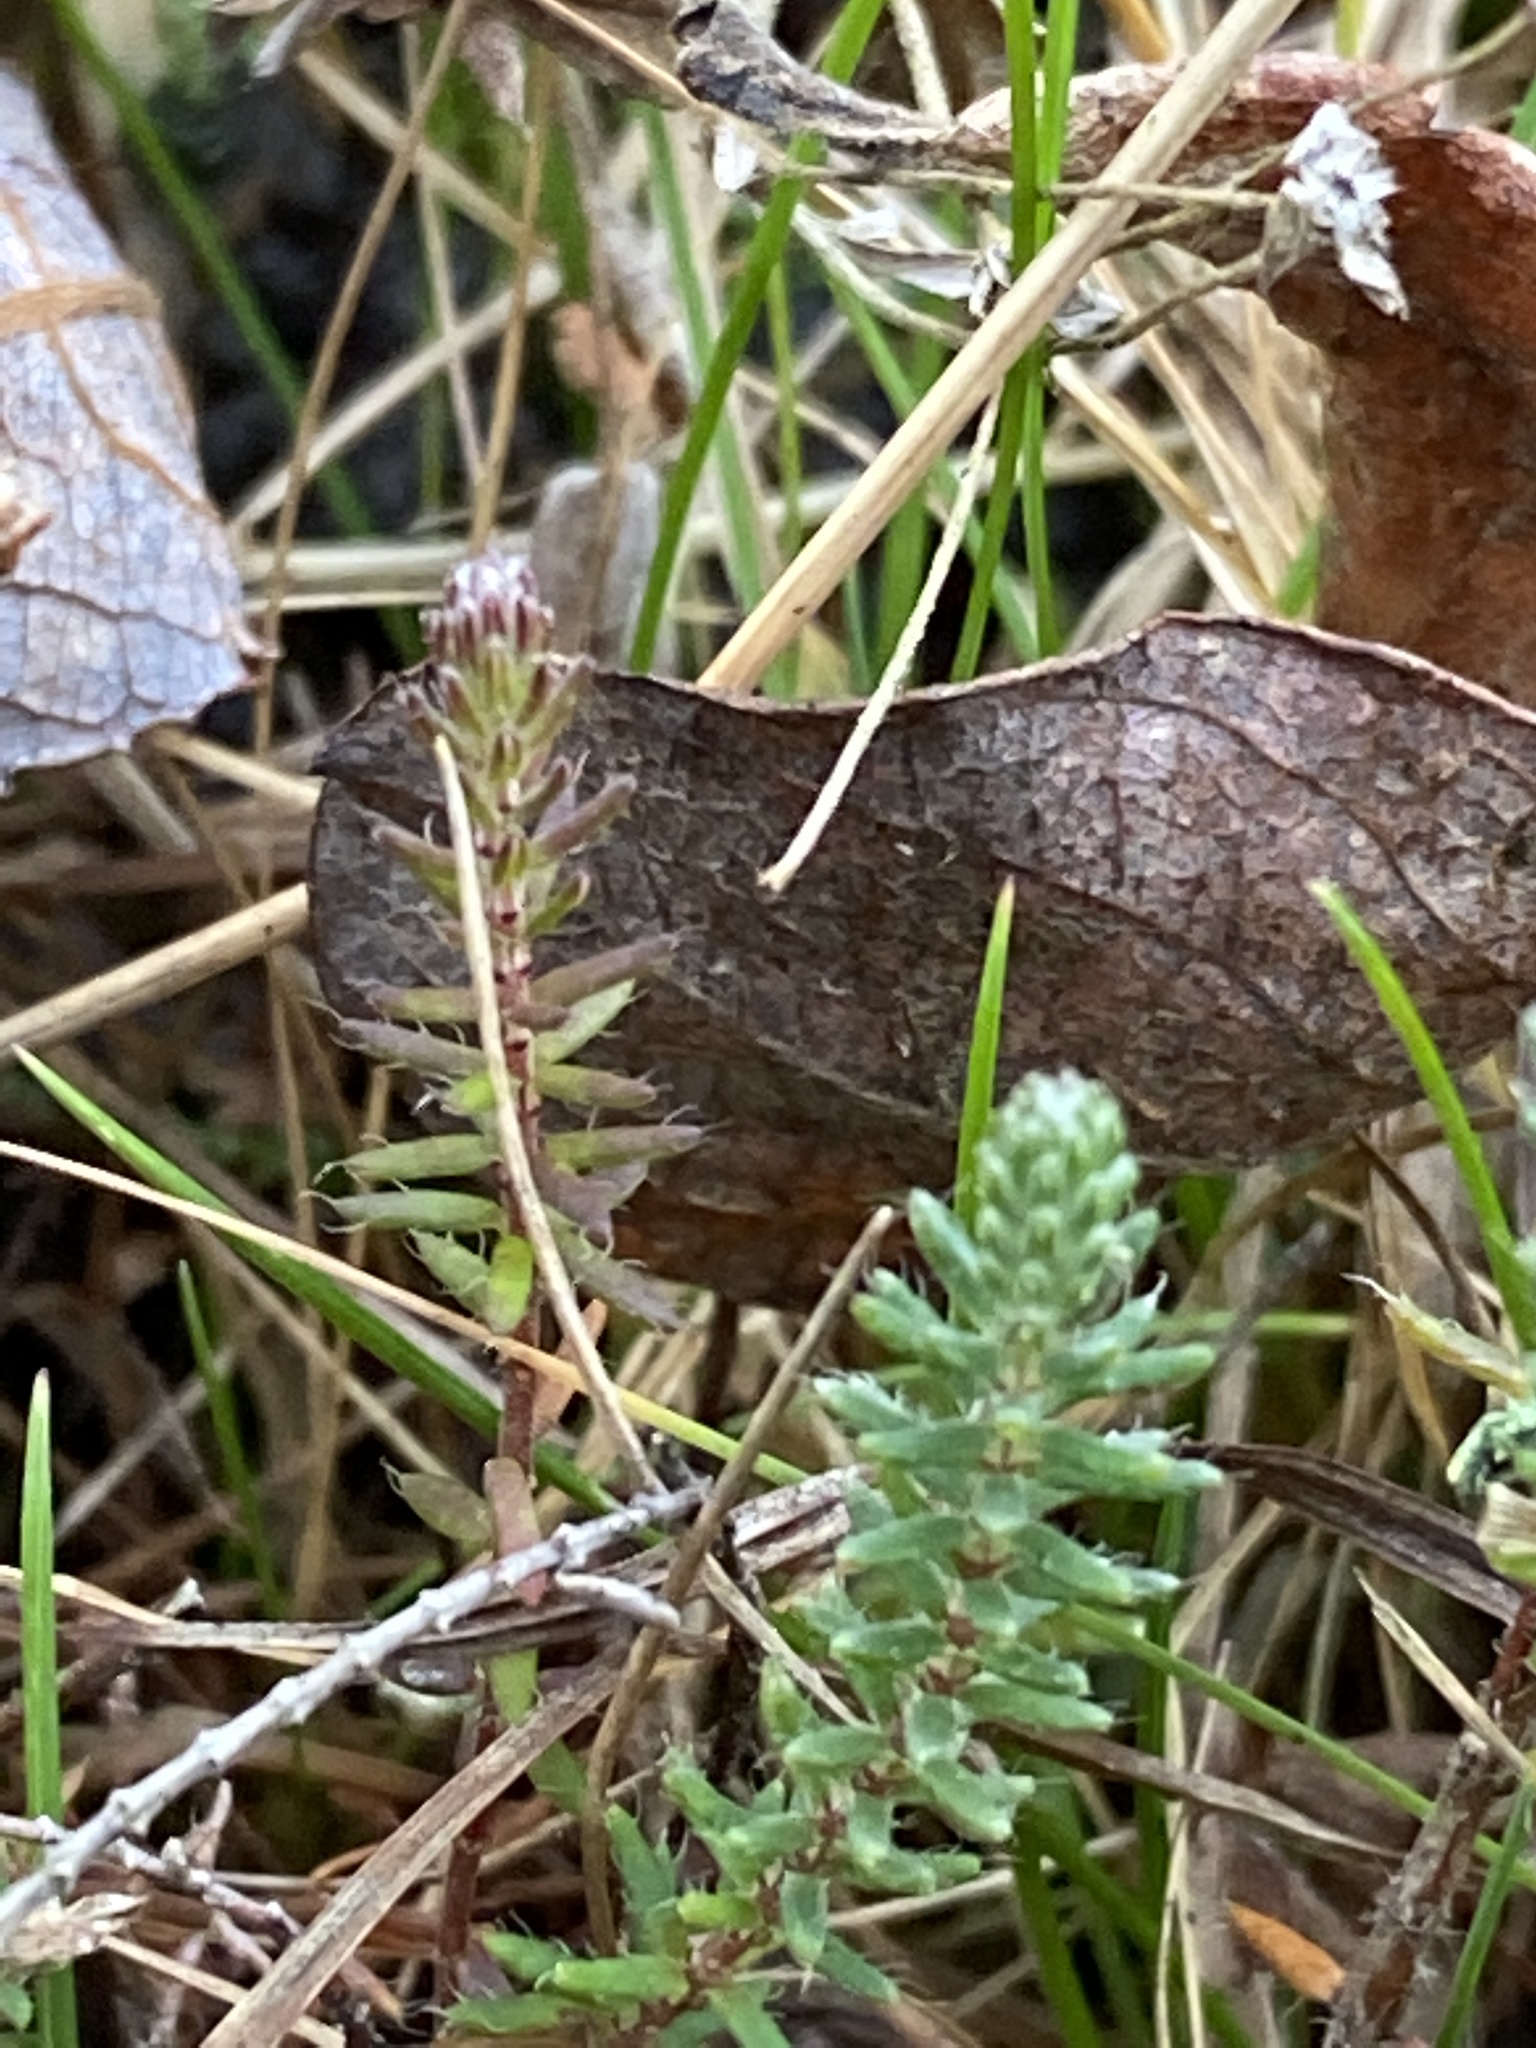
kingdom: Plantae
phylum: Tracheophyta
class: Magnoliopsida
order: Ericales
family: Ericaceae
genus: Erica
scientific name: Erica tetralix
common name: Cross-leaved heath
